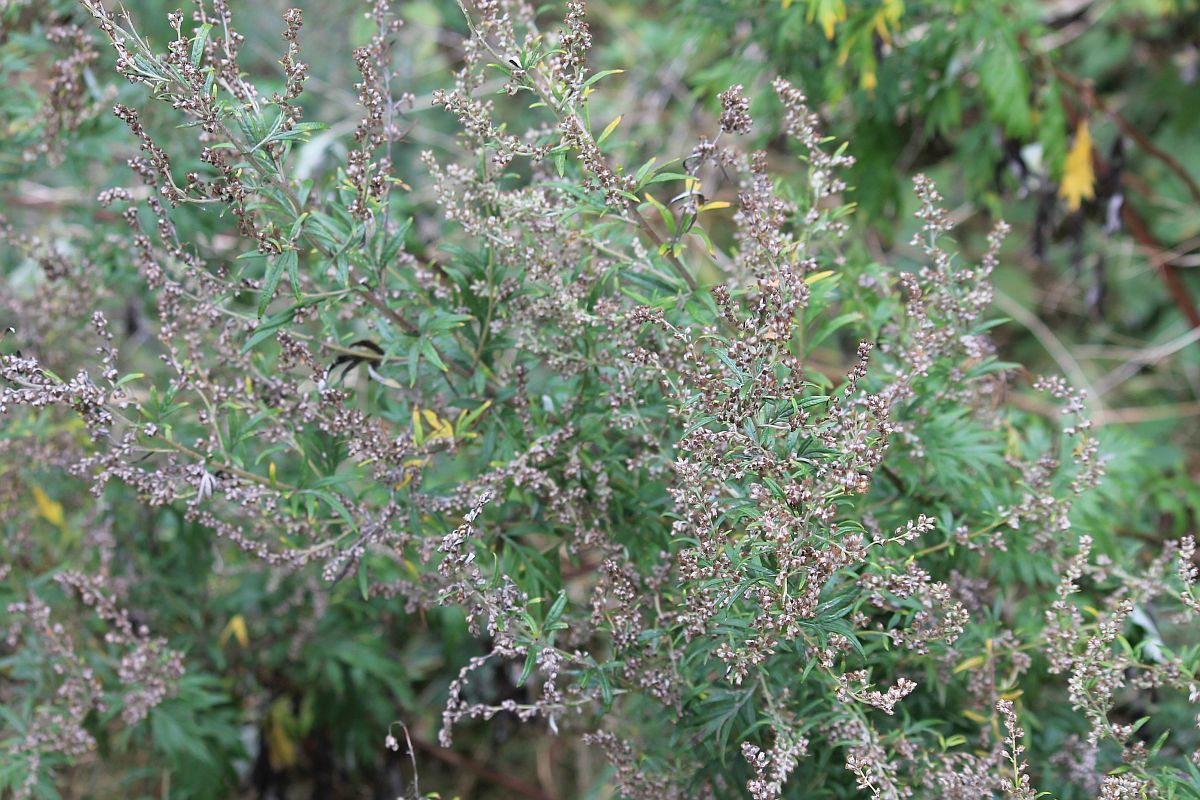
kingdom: Plantae
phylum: Tracheophyta
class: Magnoliopsida
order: Asterales
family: Asteraceae
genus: Artemisia
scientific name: Artemisia vulgaris
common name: Mugwort
